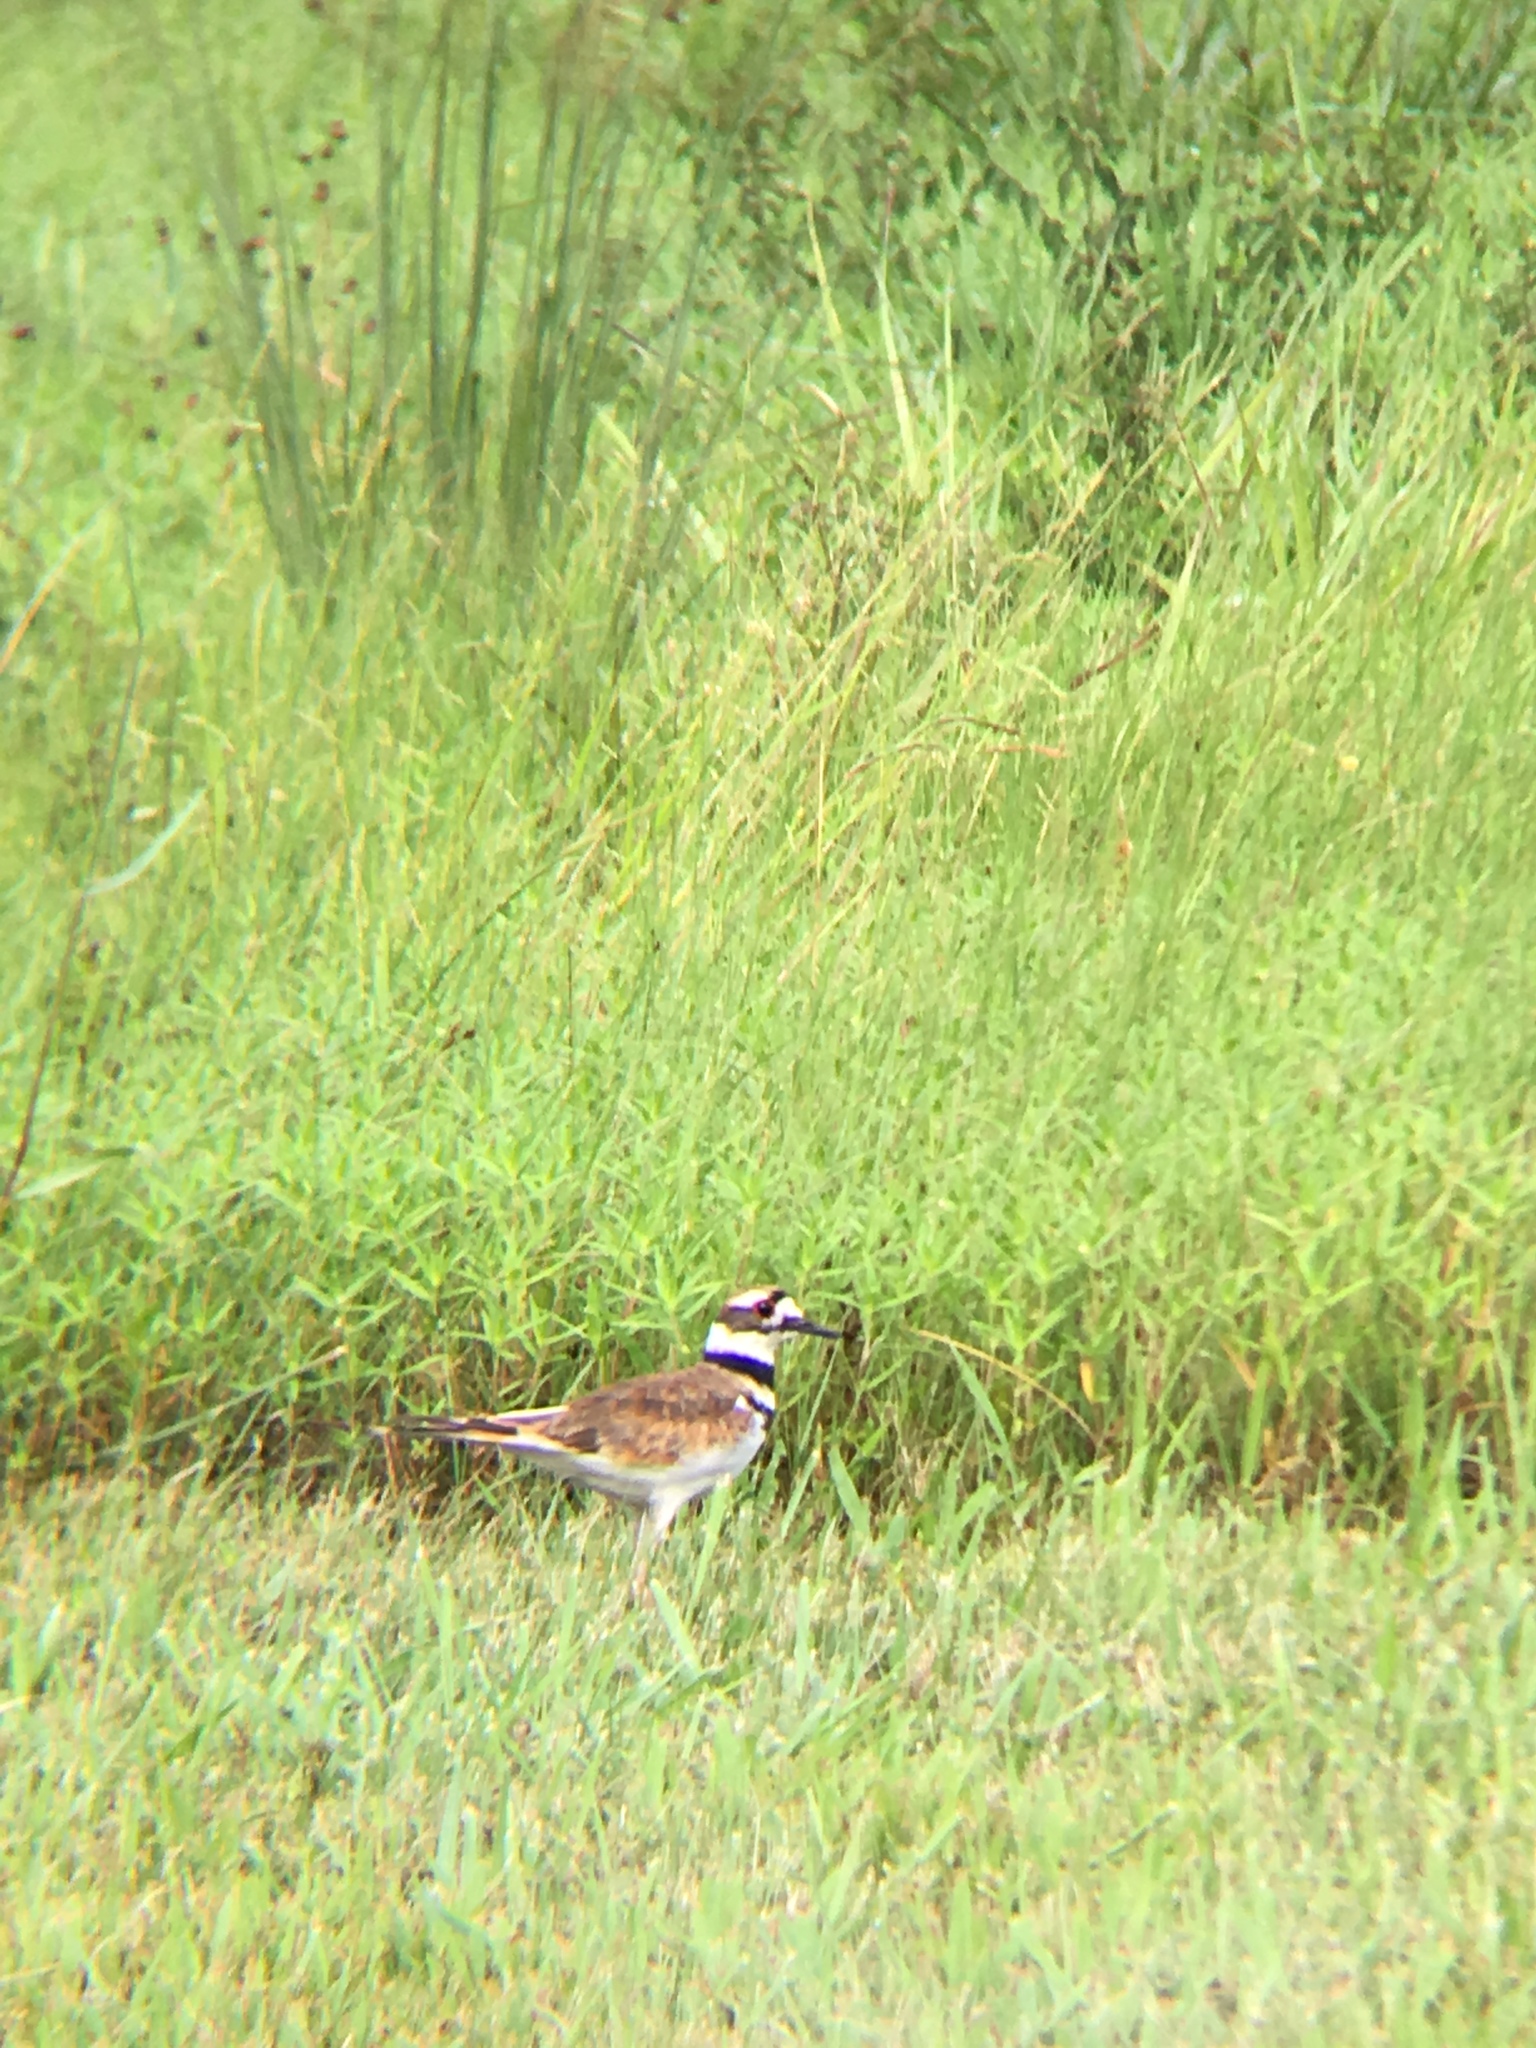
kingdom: Animalia
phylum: Chordata
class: Aves
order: Charadriiformes
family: Charadriidae
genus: Charadrius
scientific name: Charadrius vociferus
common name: Killdeer
